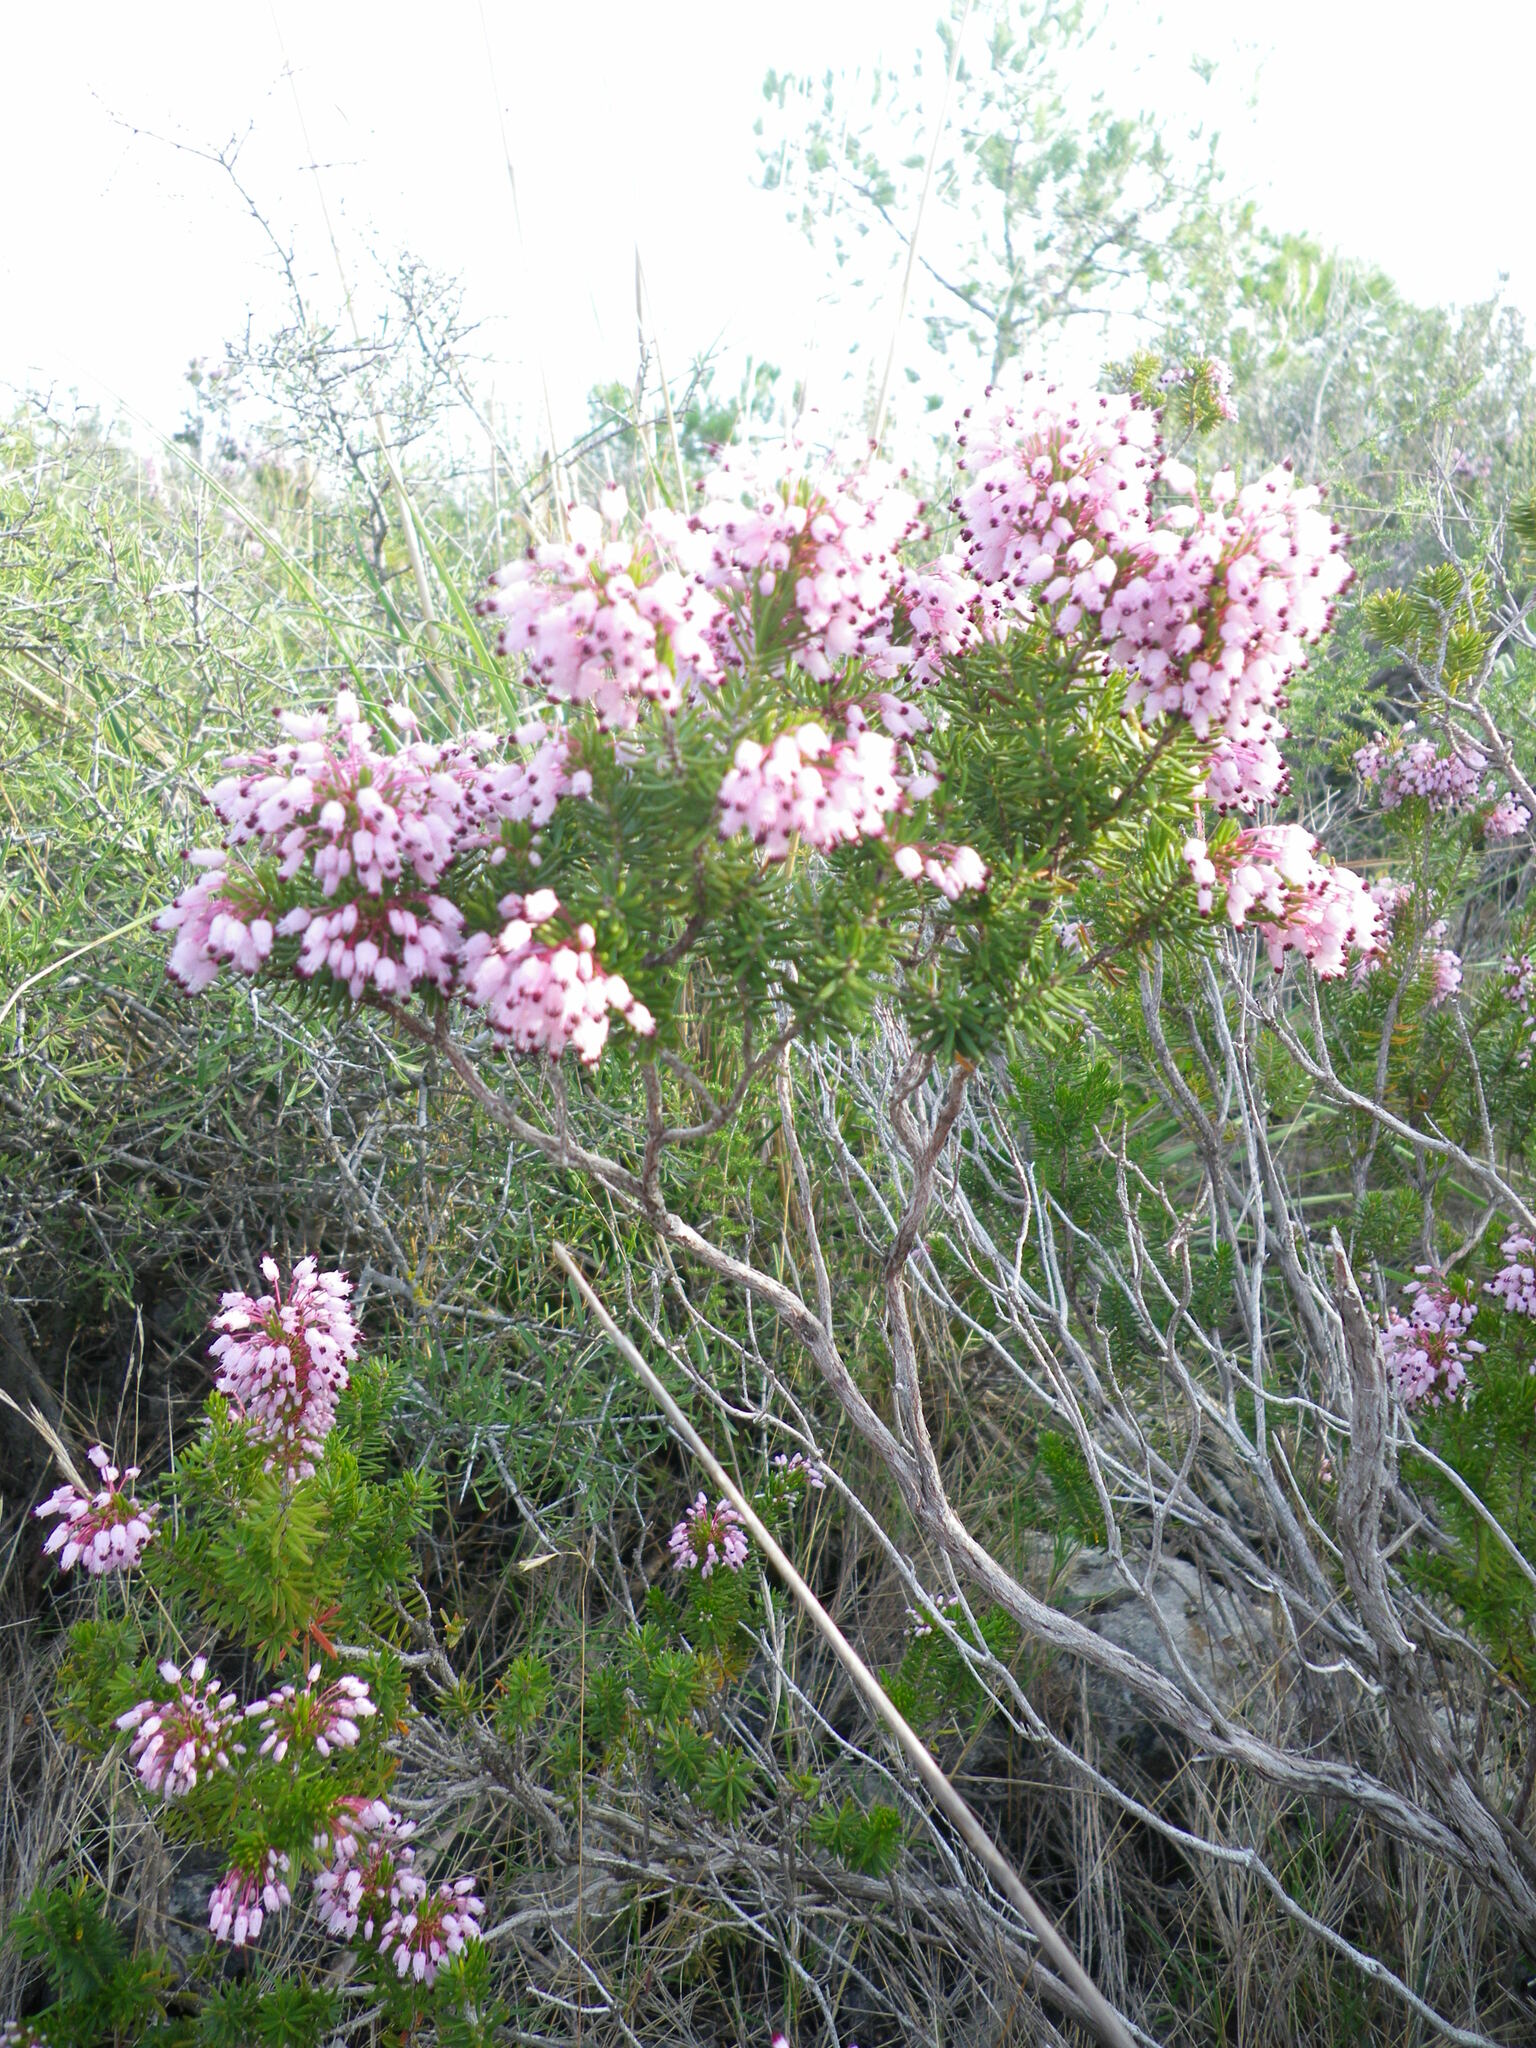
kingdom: Plantae
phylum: Tracheophyta
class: Magnoliopsida
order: Ericales
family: Ericaceae
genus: Erica
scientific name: Erica multiflora
